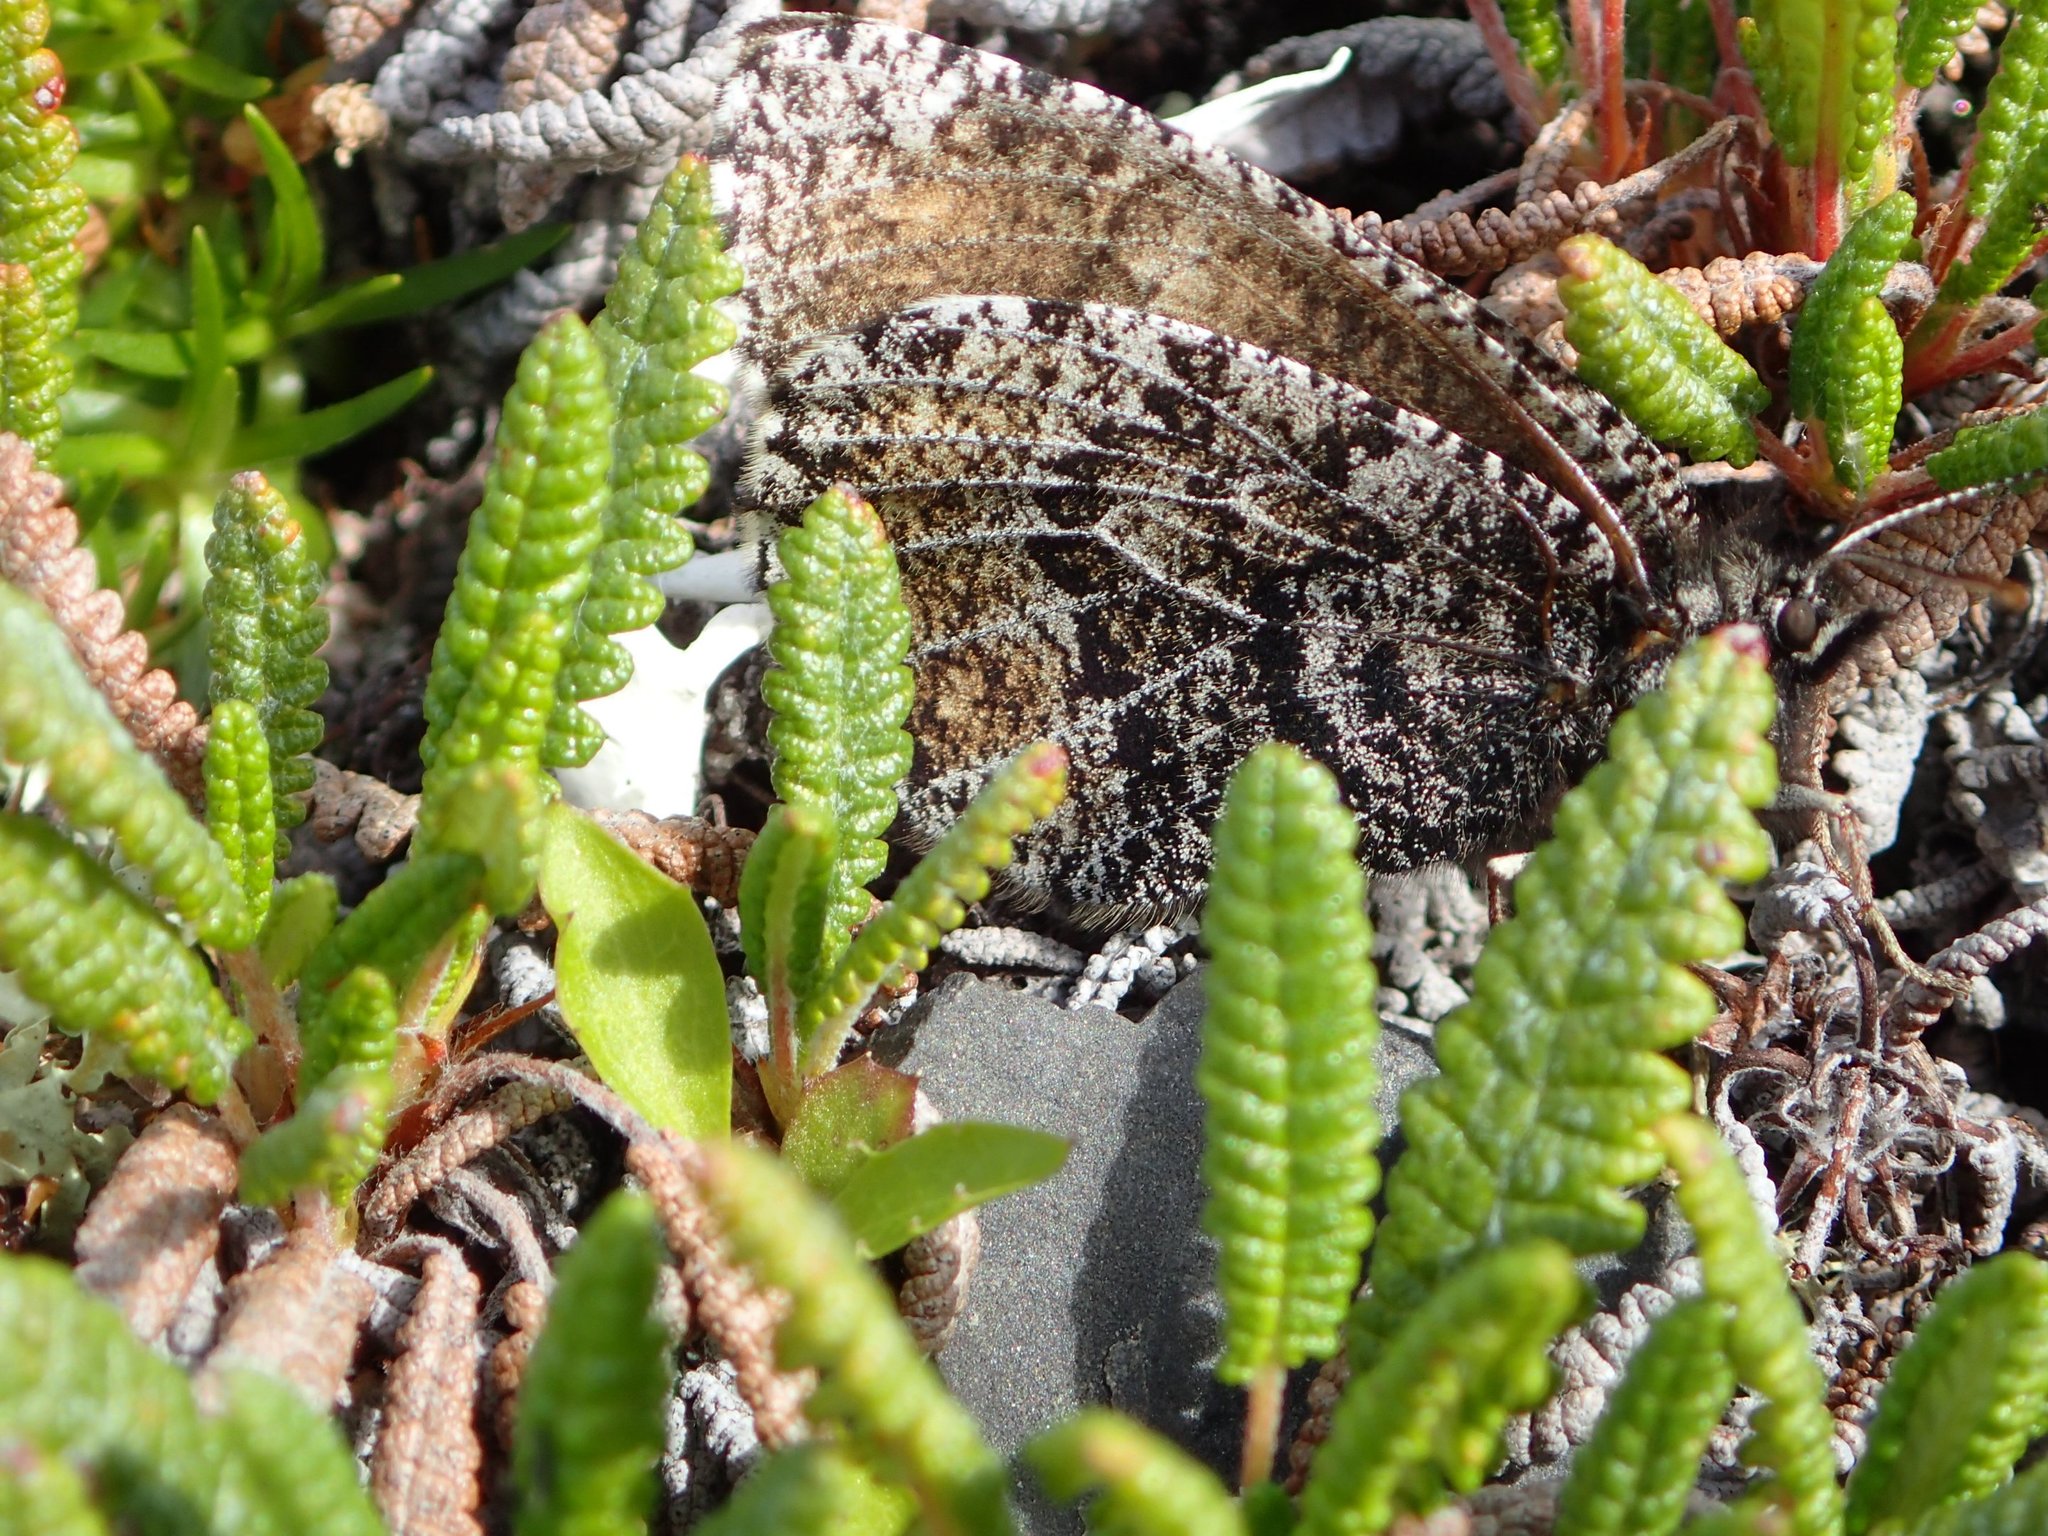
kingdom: Animalia
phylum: Arthropoda
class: Insecta
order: Lepidoptera
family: Nymphalidae
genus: Oeneis
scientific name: Oeneis bore
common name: Arctic grayling
